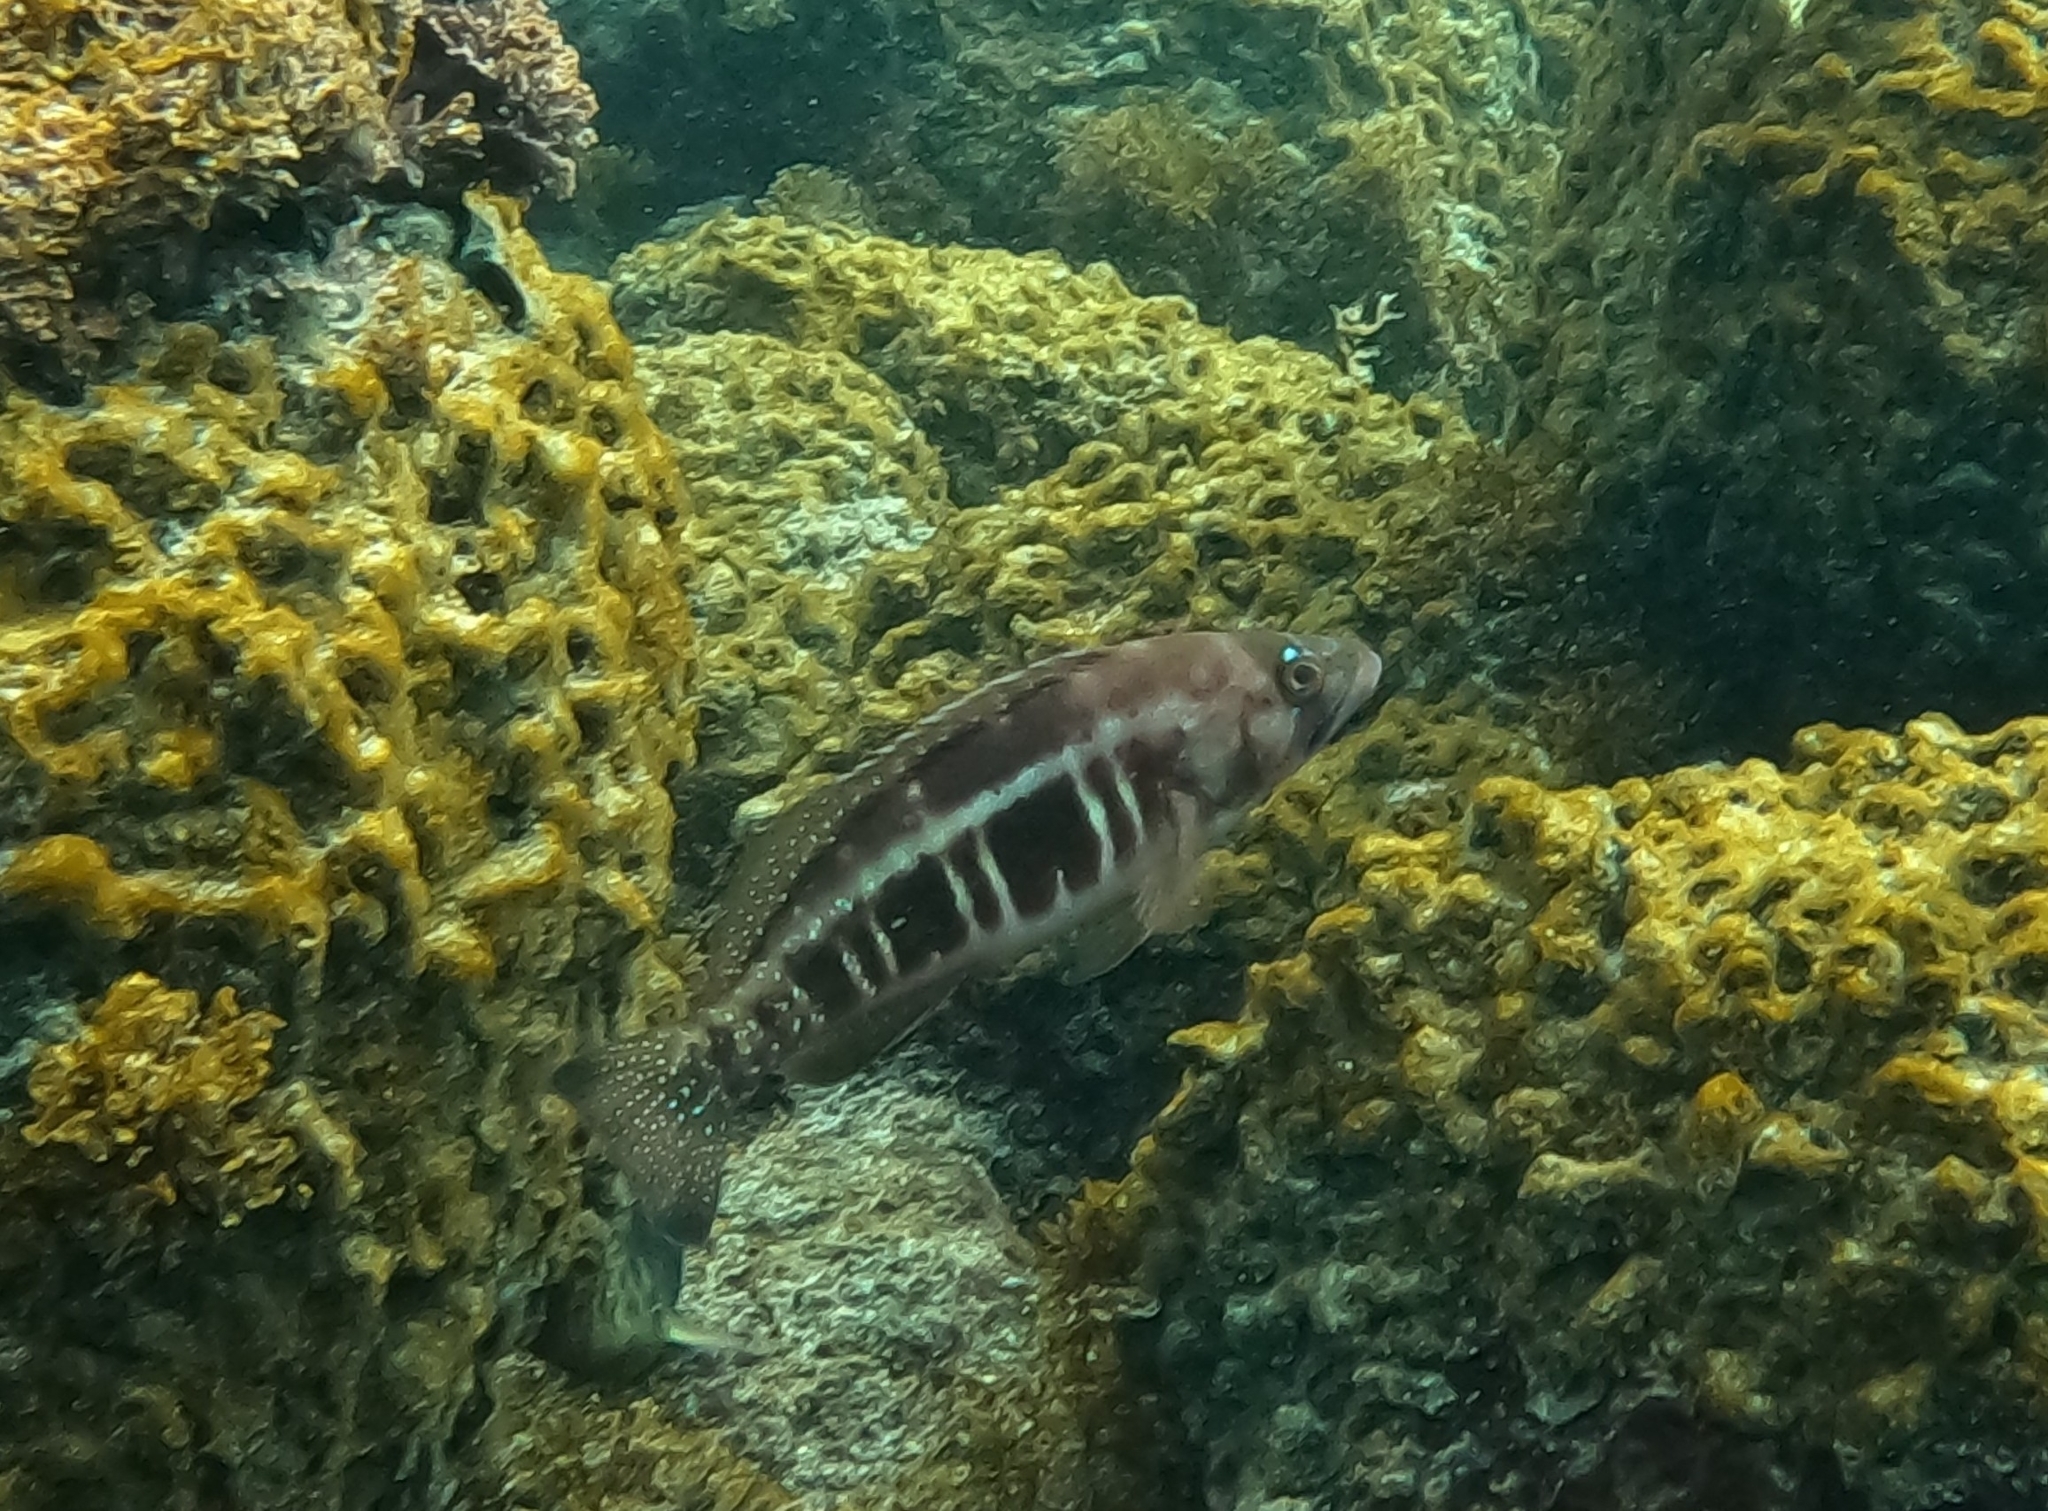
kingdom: Animalia
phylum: Chordata
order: Perciformes
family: Serranidae
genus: Serranus
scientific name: Serranus atricauda
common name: Blacktail comber
